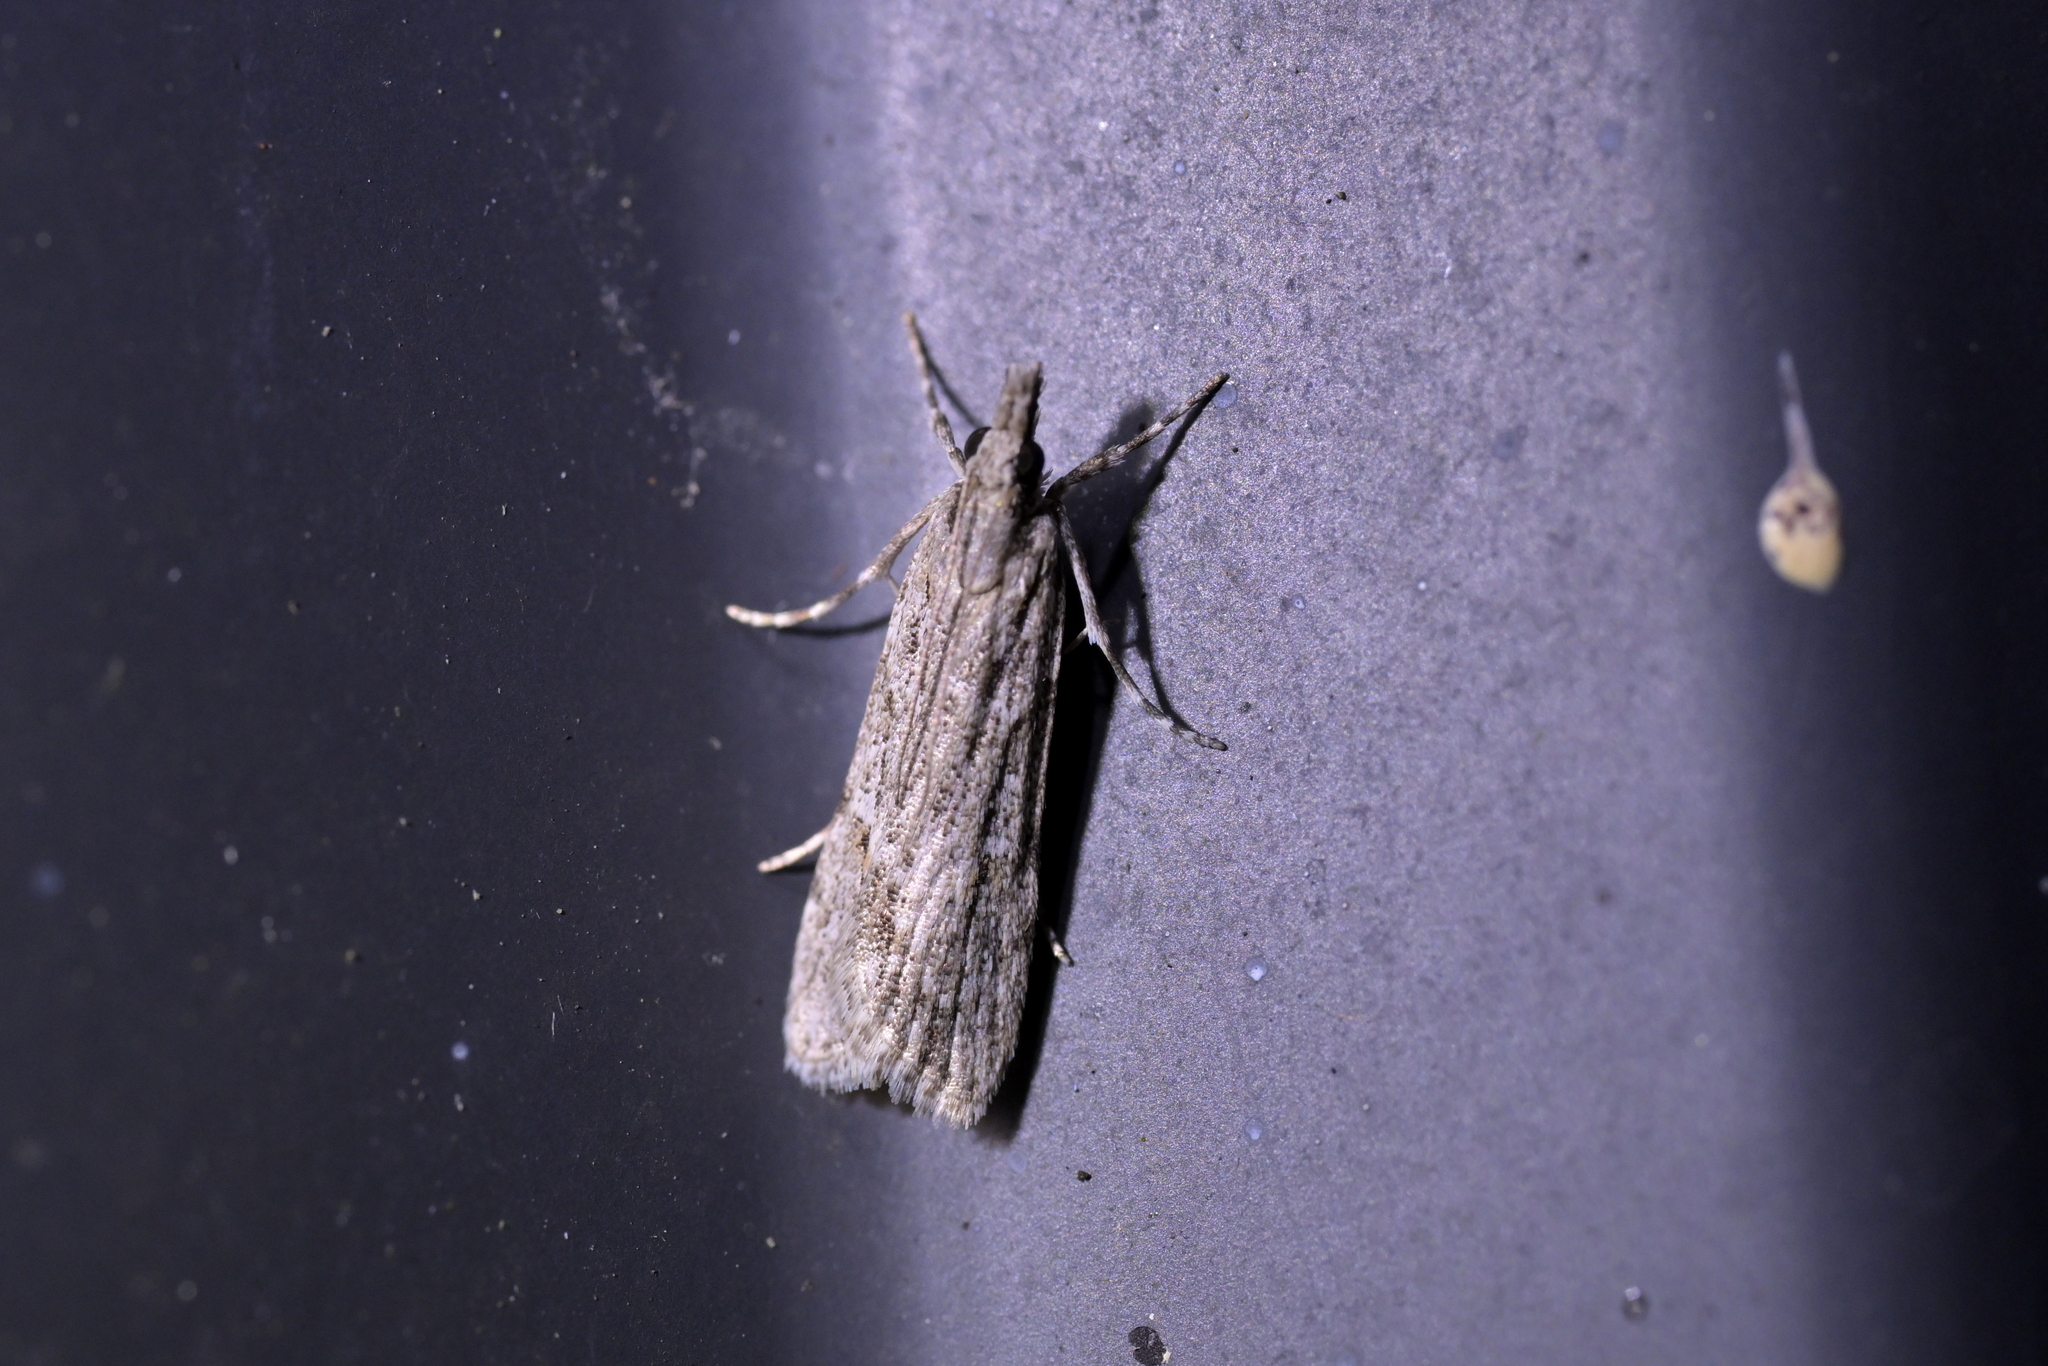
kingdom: Animalia
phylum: Arthropoda
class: Insecta
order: Lepidoptera
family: Crambidae
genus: Scoparia
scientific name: Scoparia chalicodes
